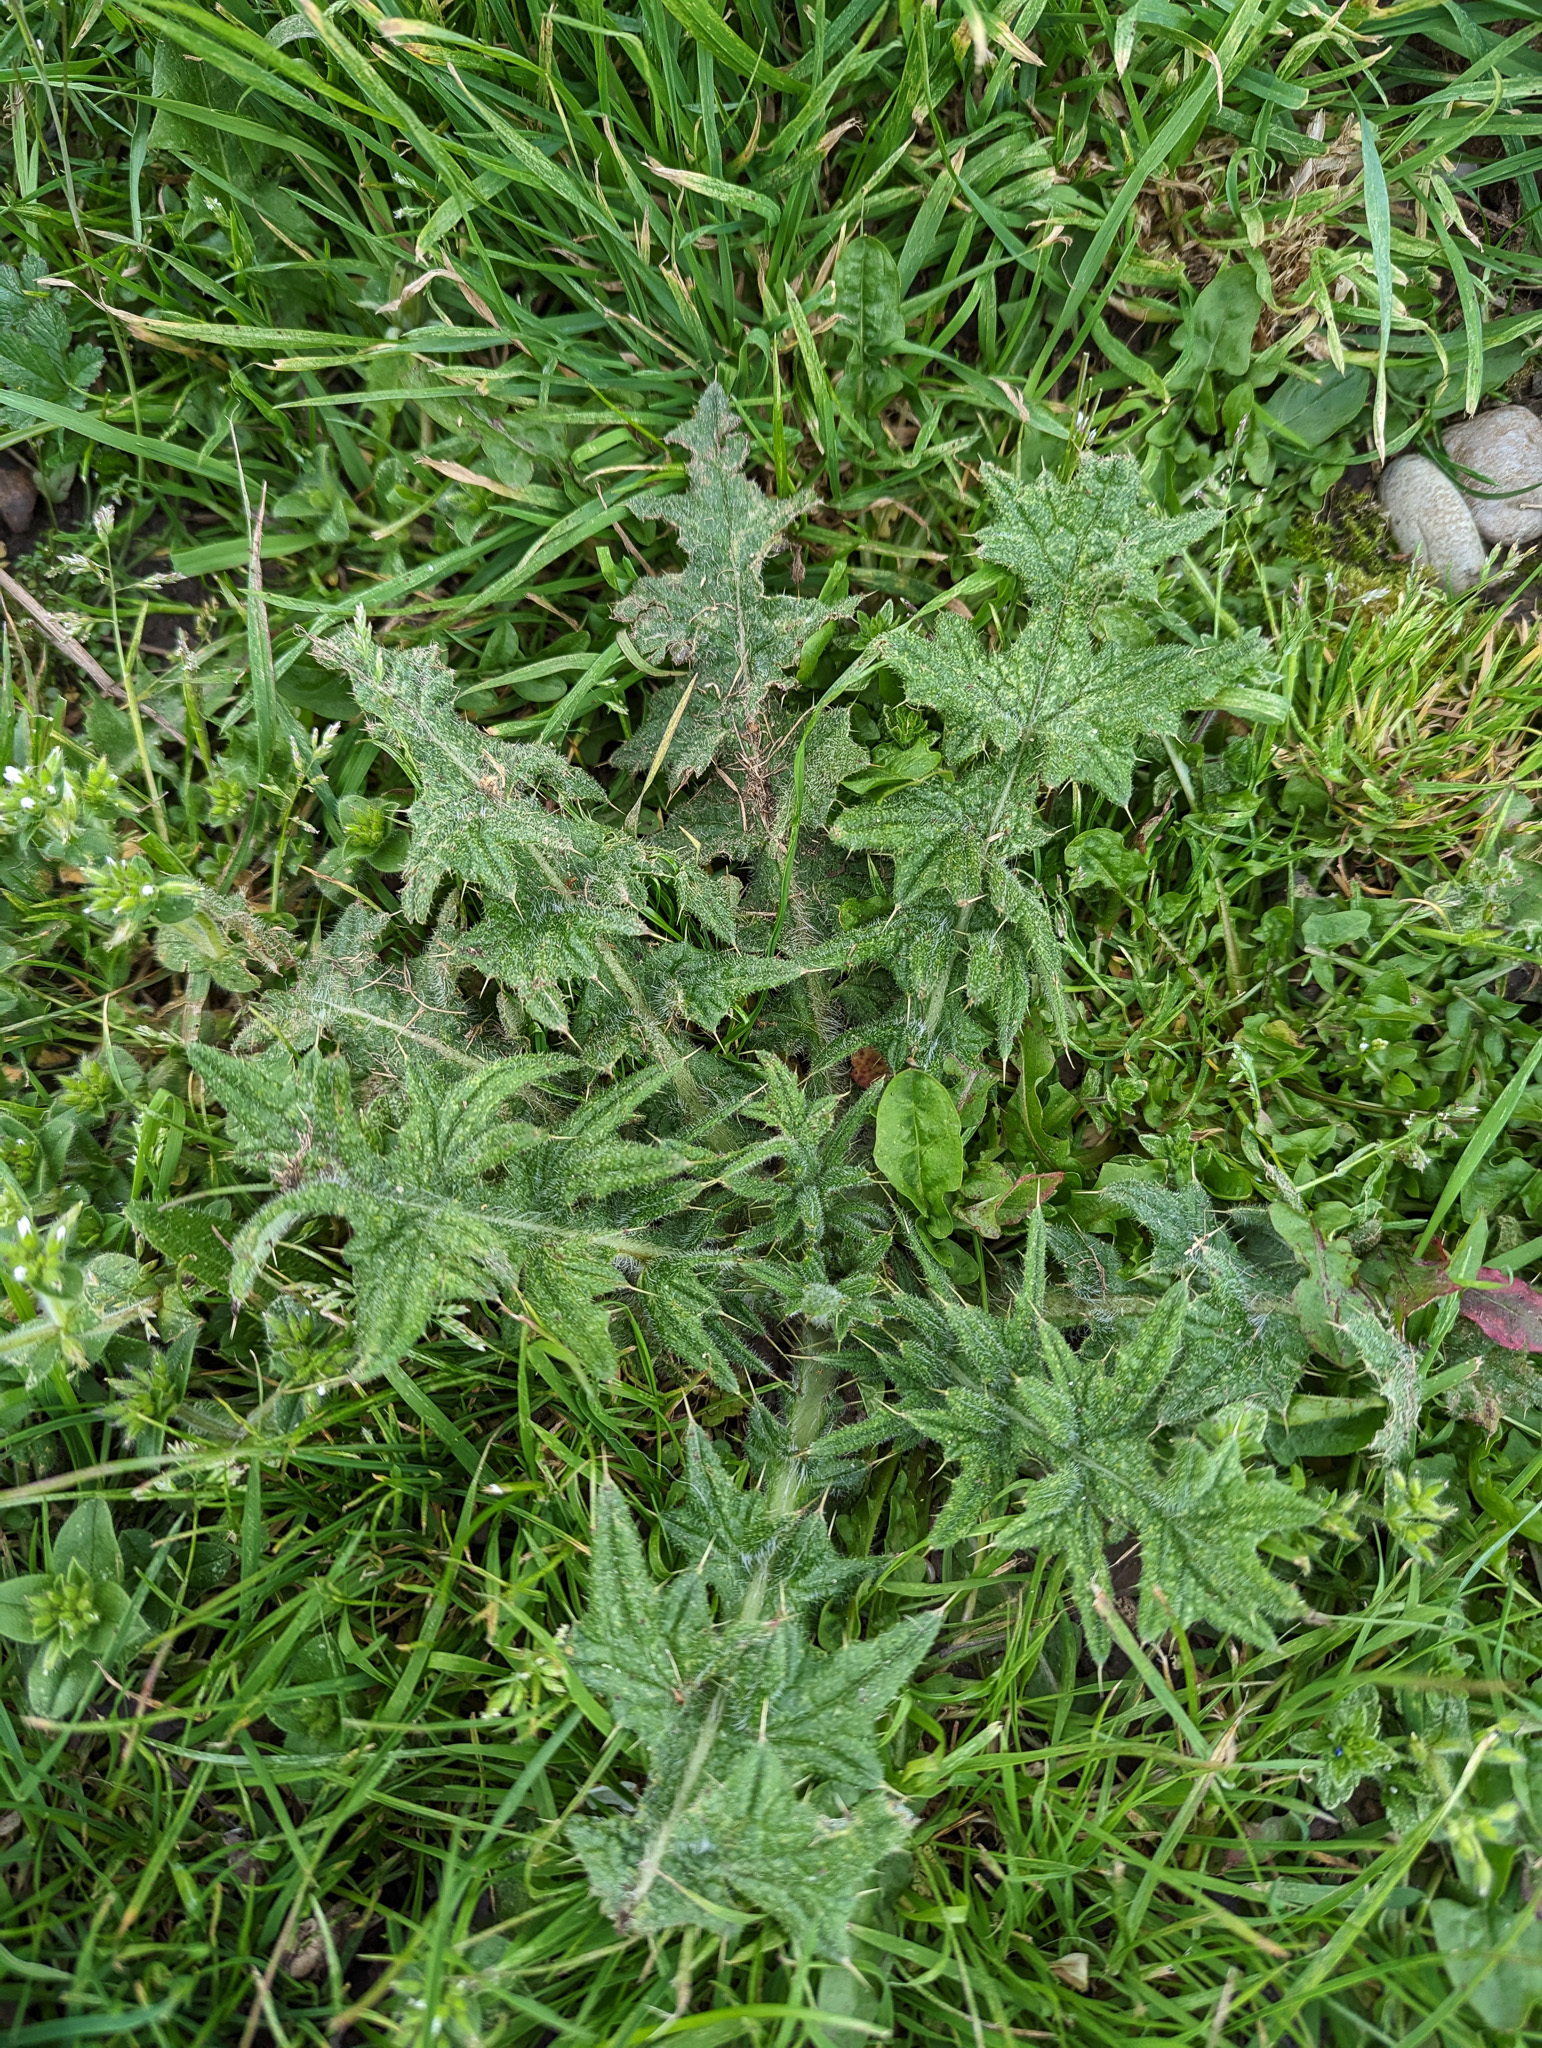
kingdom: Plantae
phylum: Tracheophyta
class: Magnoliopsida
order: Asterales
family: Asteraceae
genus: Cirsium
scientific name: Cirsium vulgare
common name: Bull thistle
